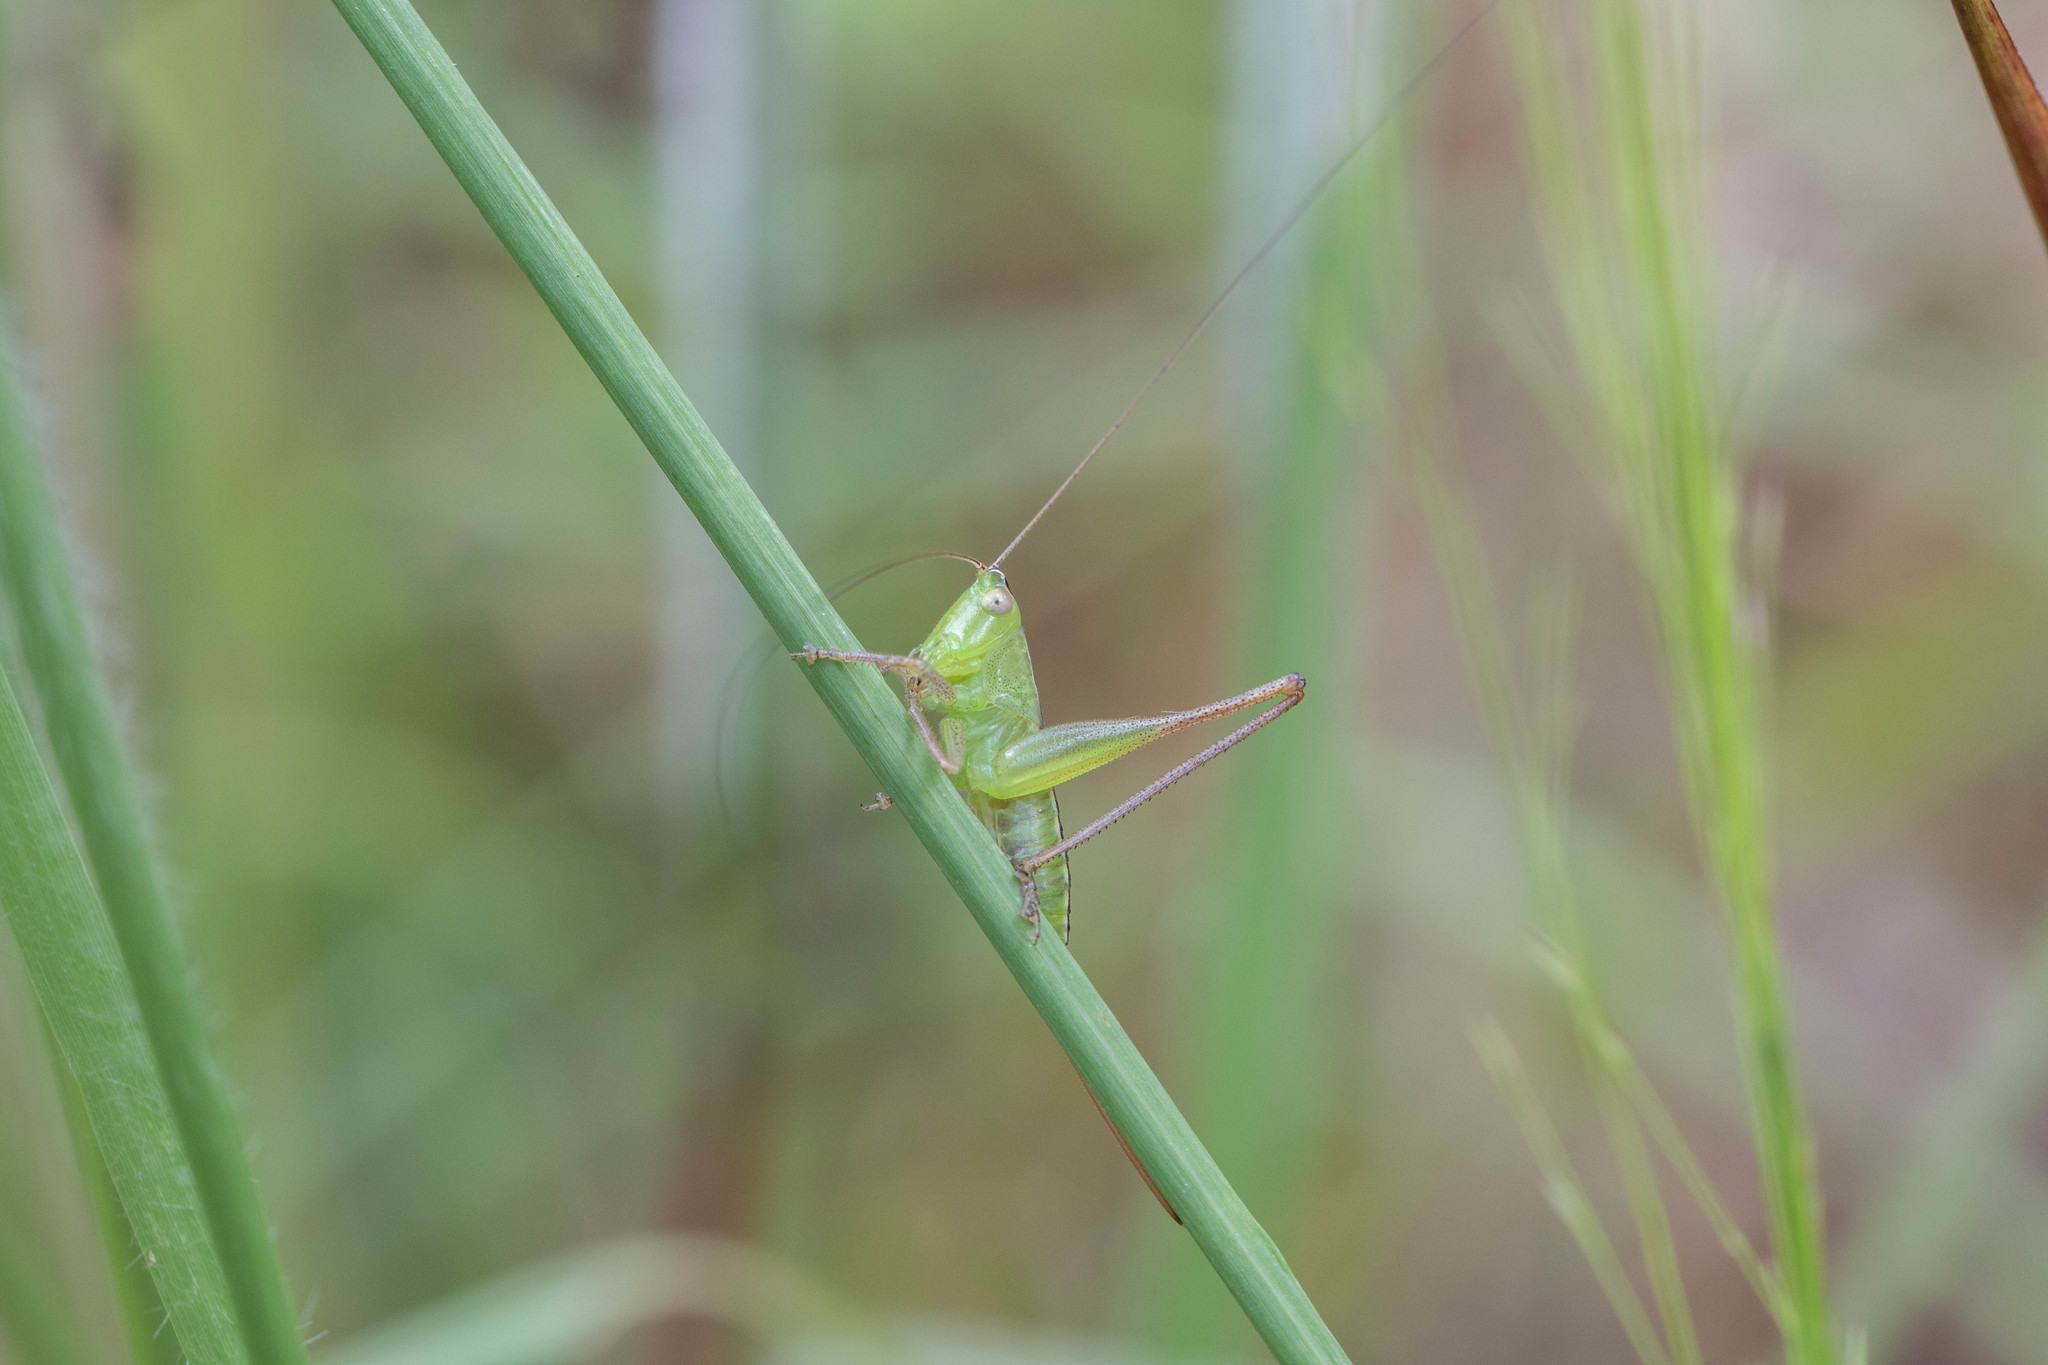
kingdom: Animalia
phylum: Arthropoda
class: Insecta
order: Orthoptera
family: Tettigoniidae
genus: Conocephalus
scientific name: Conocephalus strictus
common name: Straight-lanced katydid
